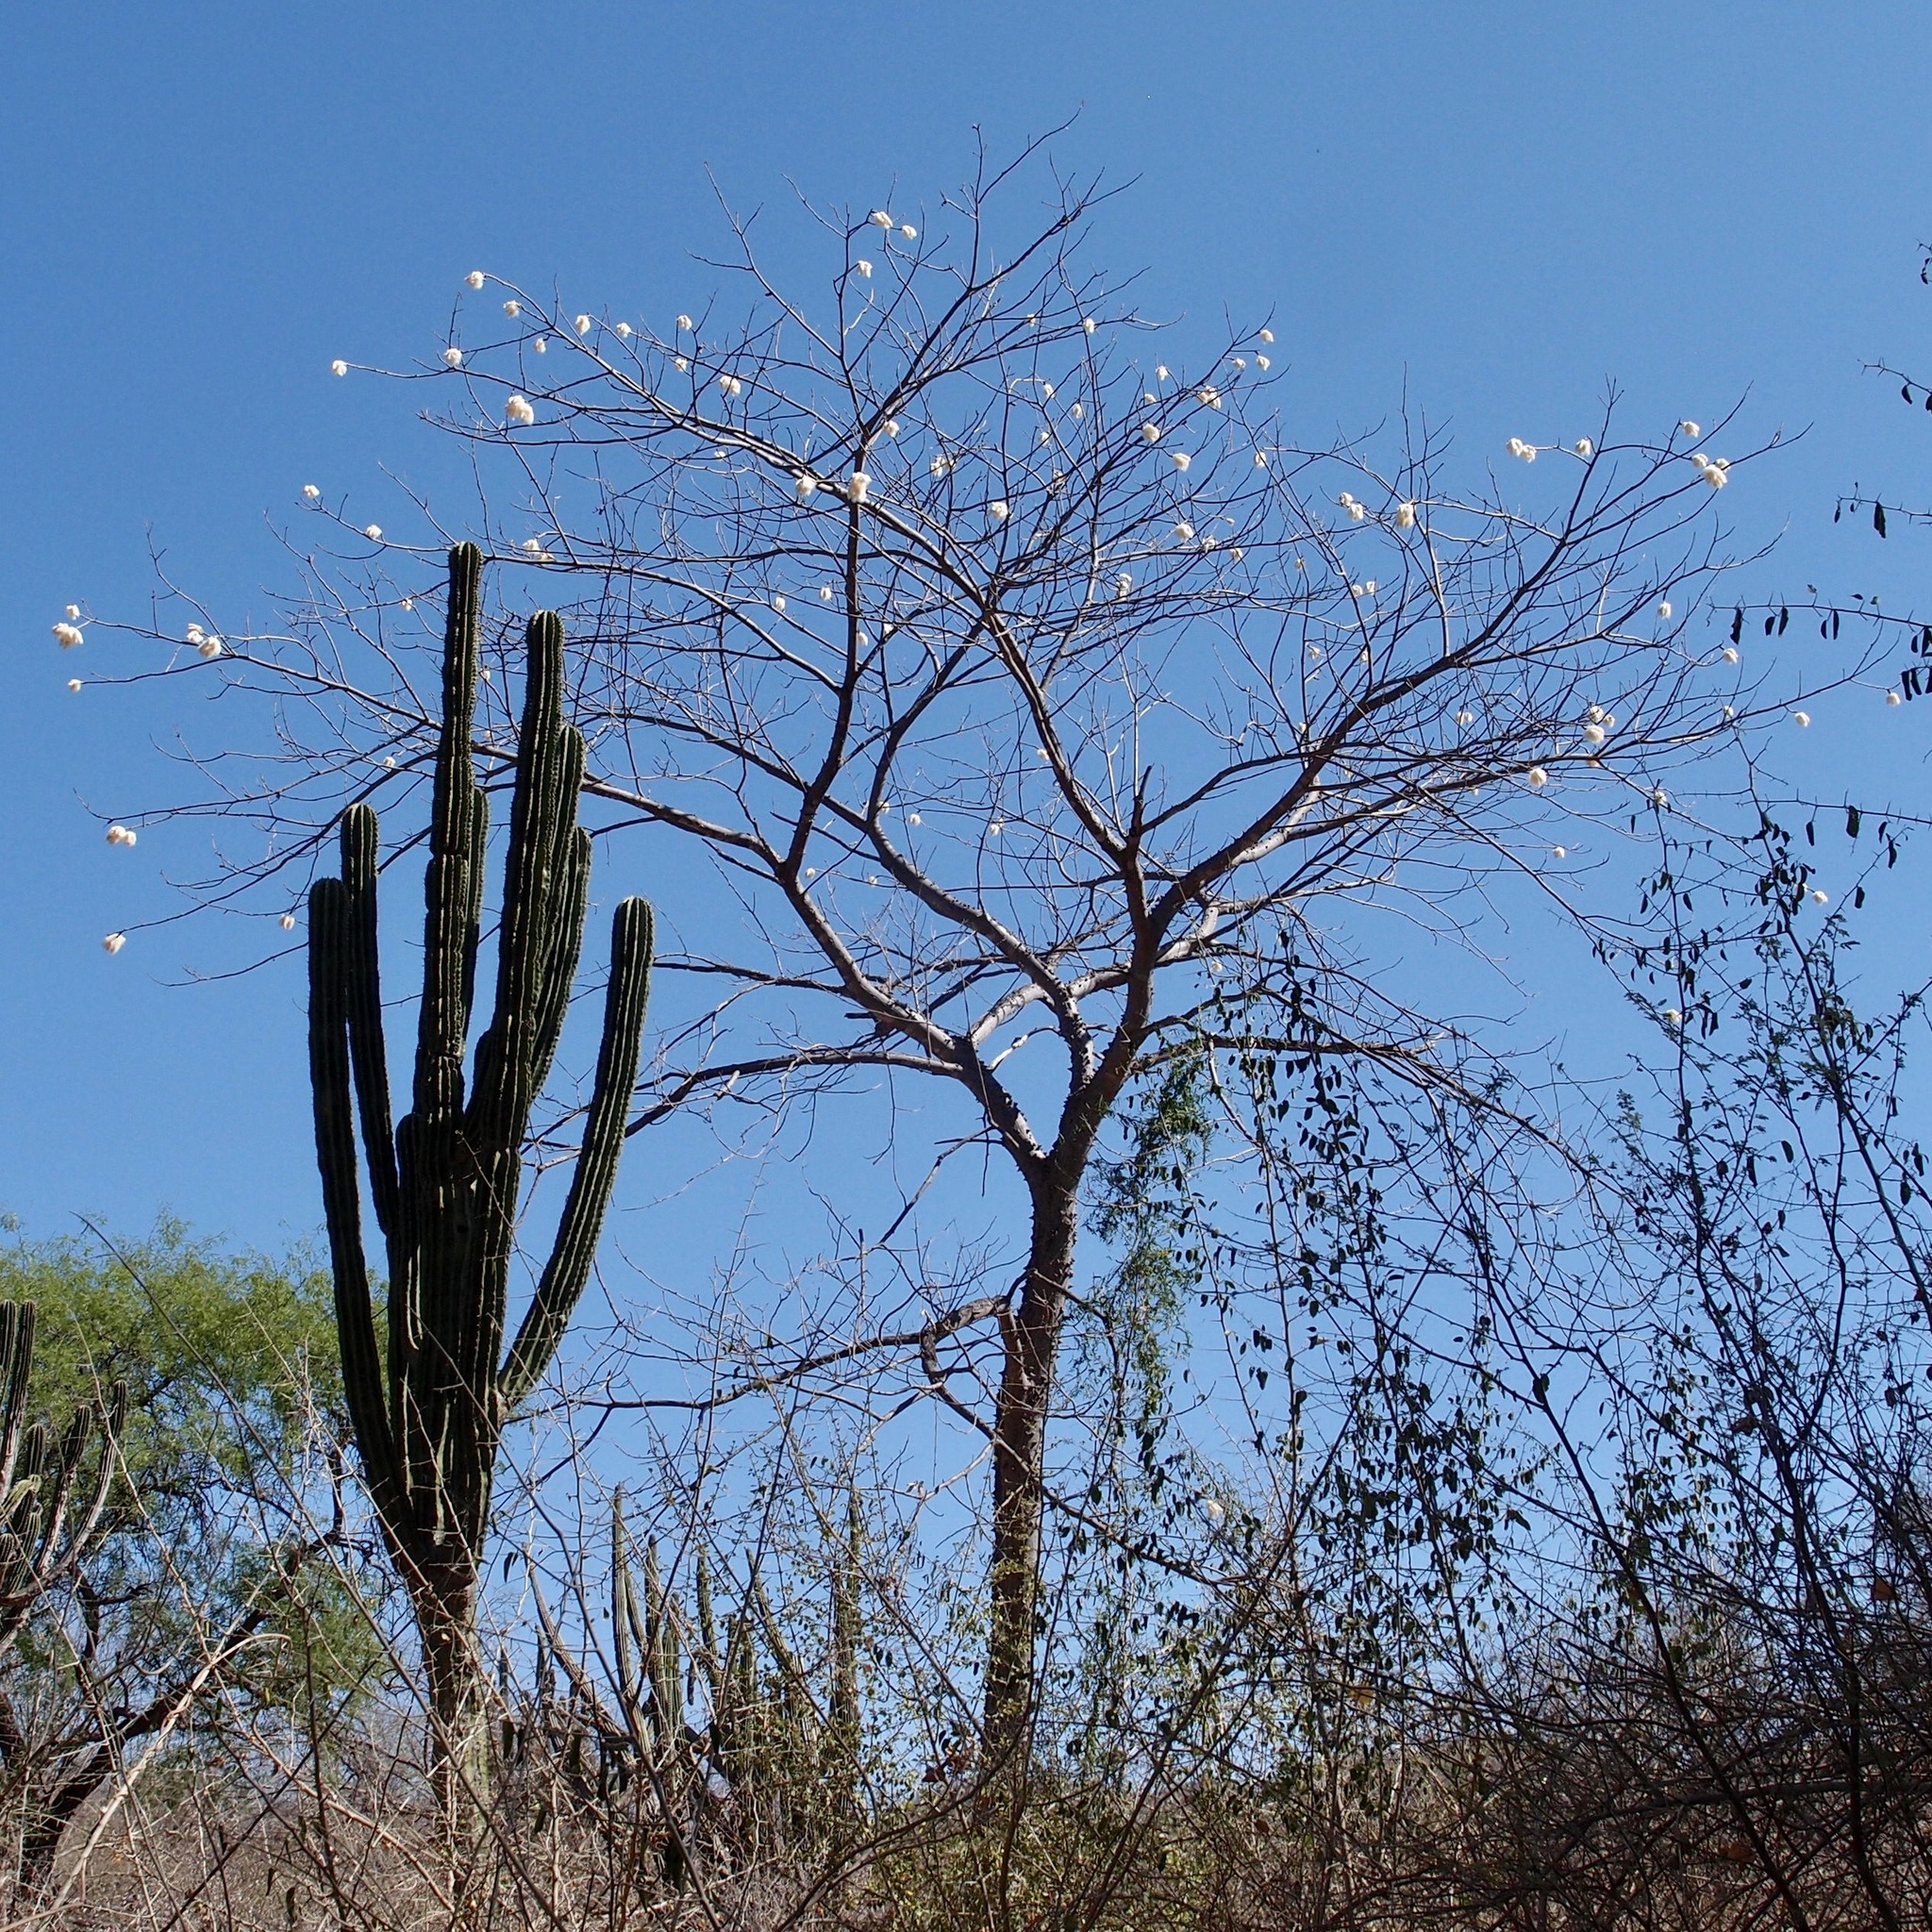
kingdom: Plantae
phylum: Tracheophyta
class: Magnoliopsida
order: Malvales
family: Malvaceae
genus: Ceiba
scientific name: Ceiba aesculifolia
